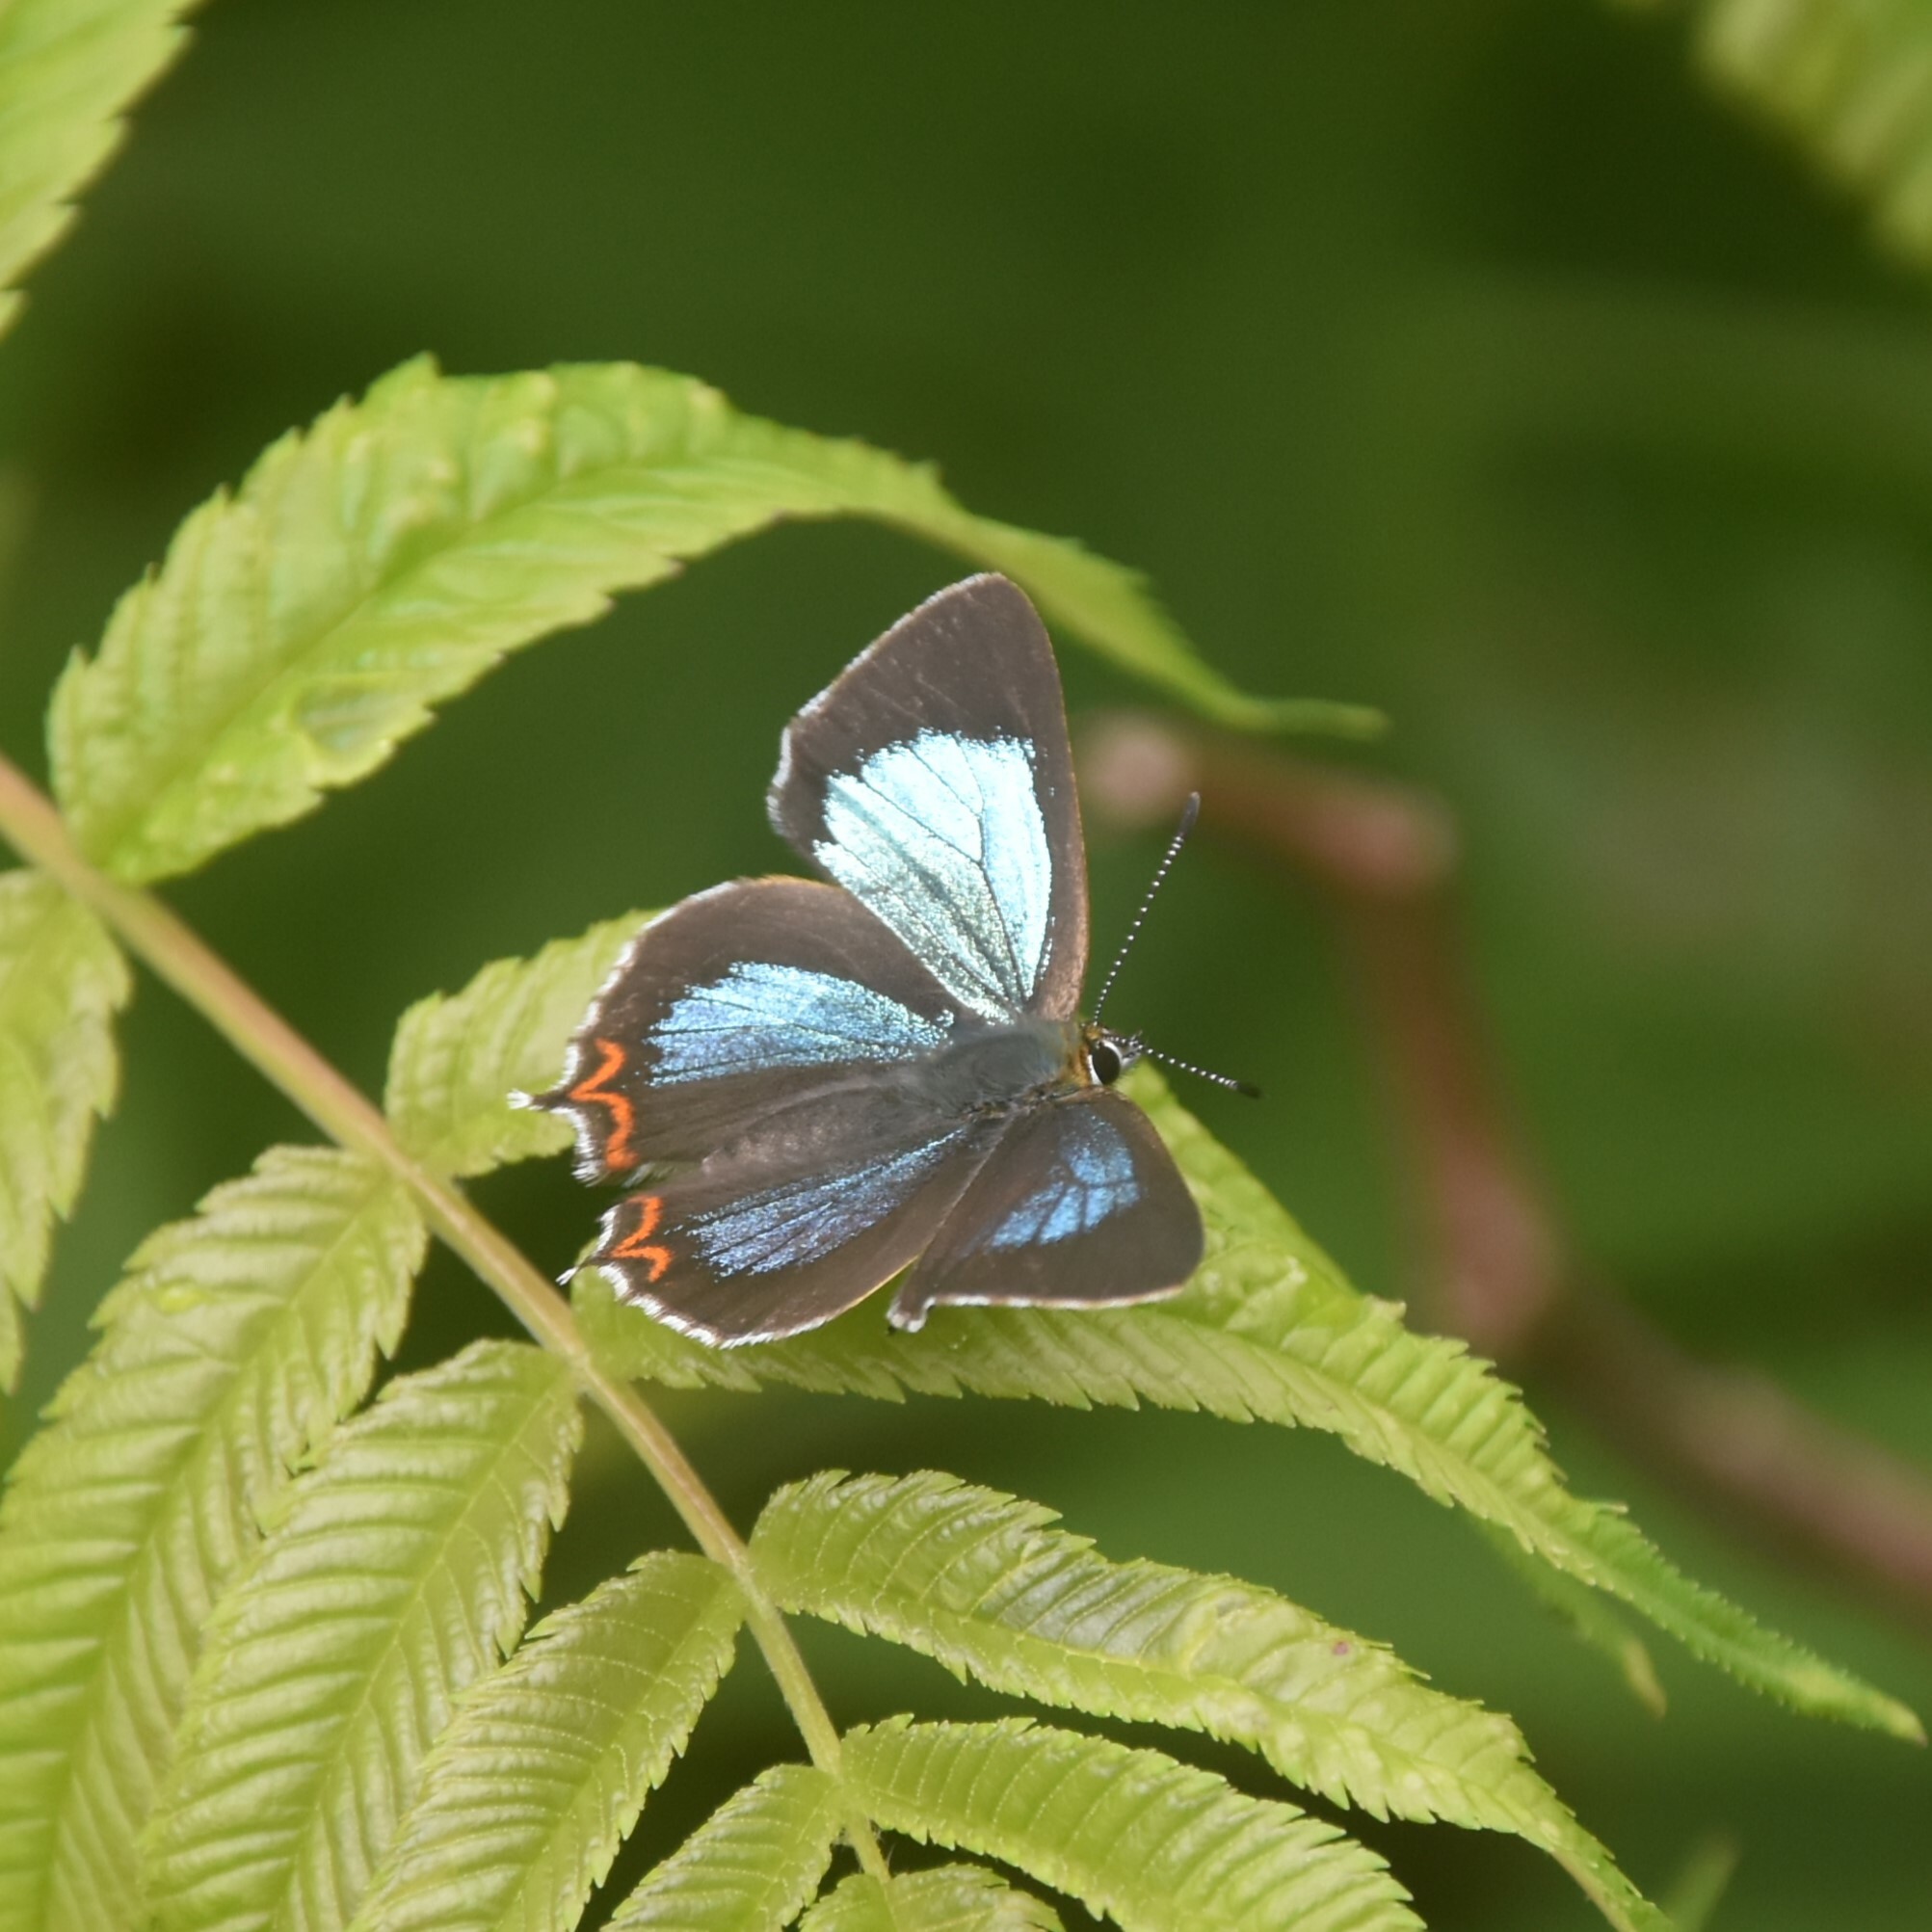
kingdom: Animalia
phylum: Arthropoda
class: Insecta
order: Lepidoptera
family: Lycaenidae
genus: Heliophorus
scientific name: Heliophorus
